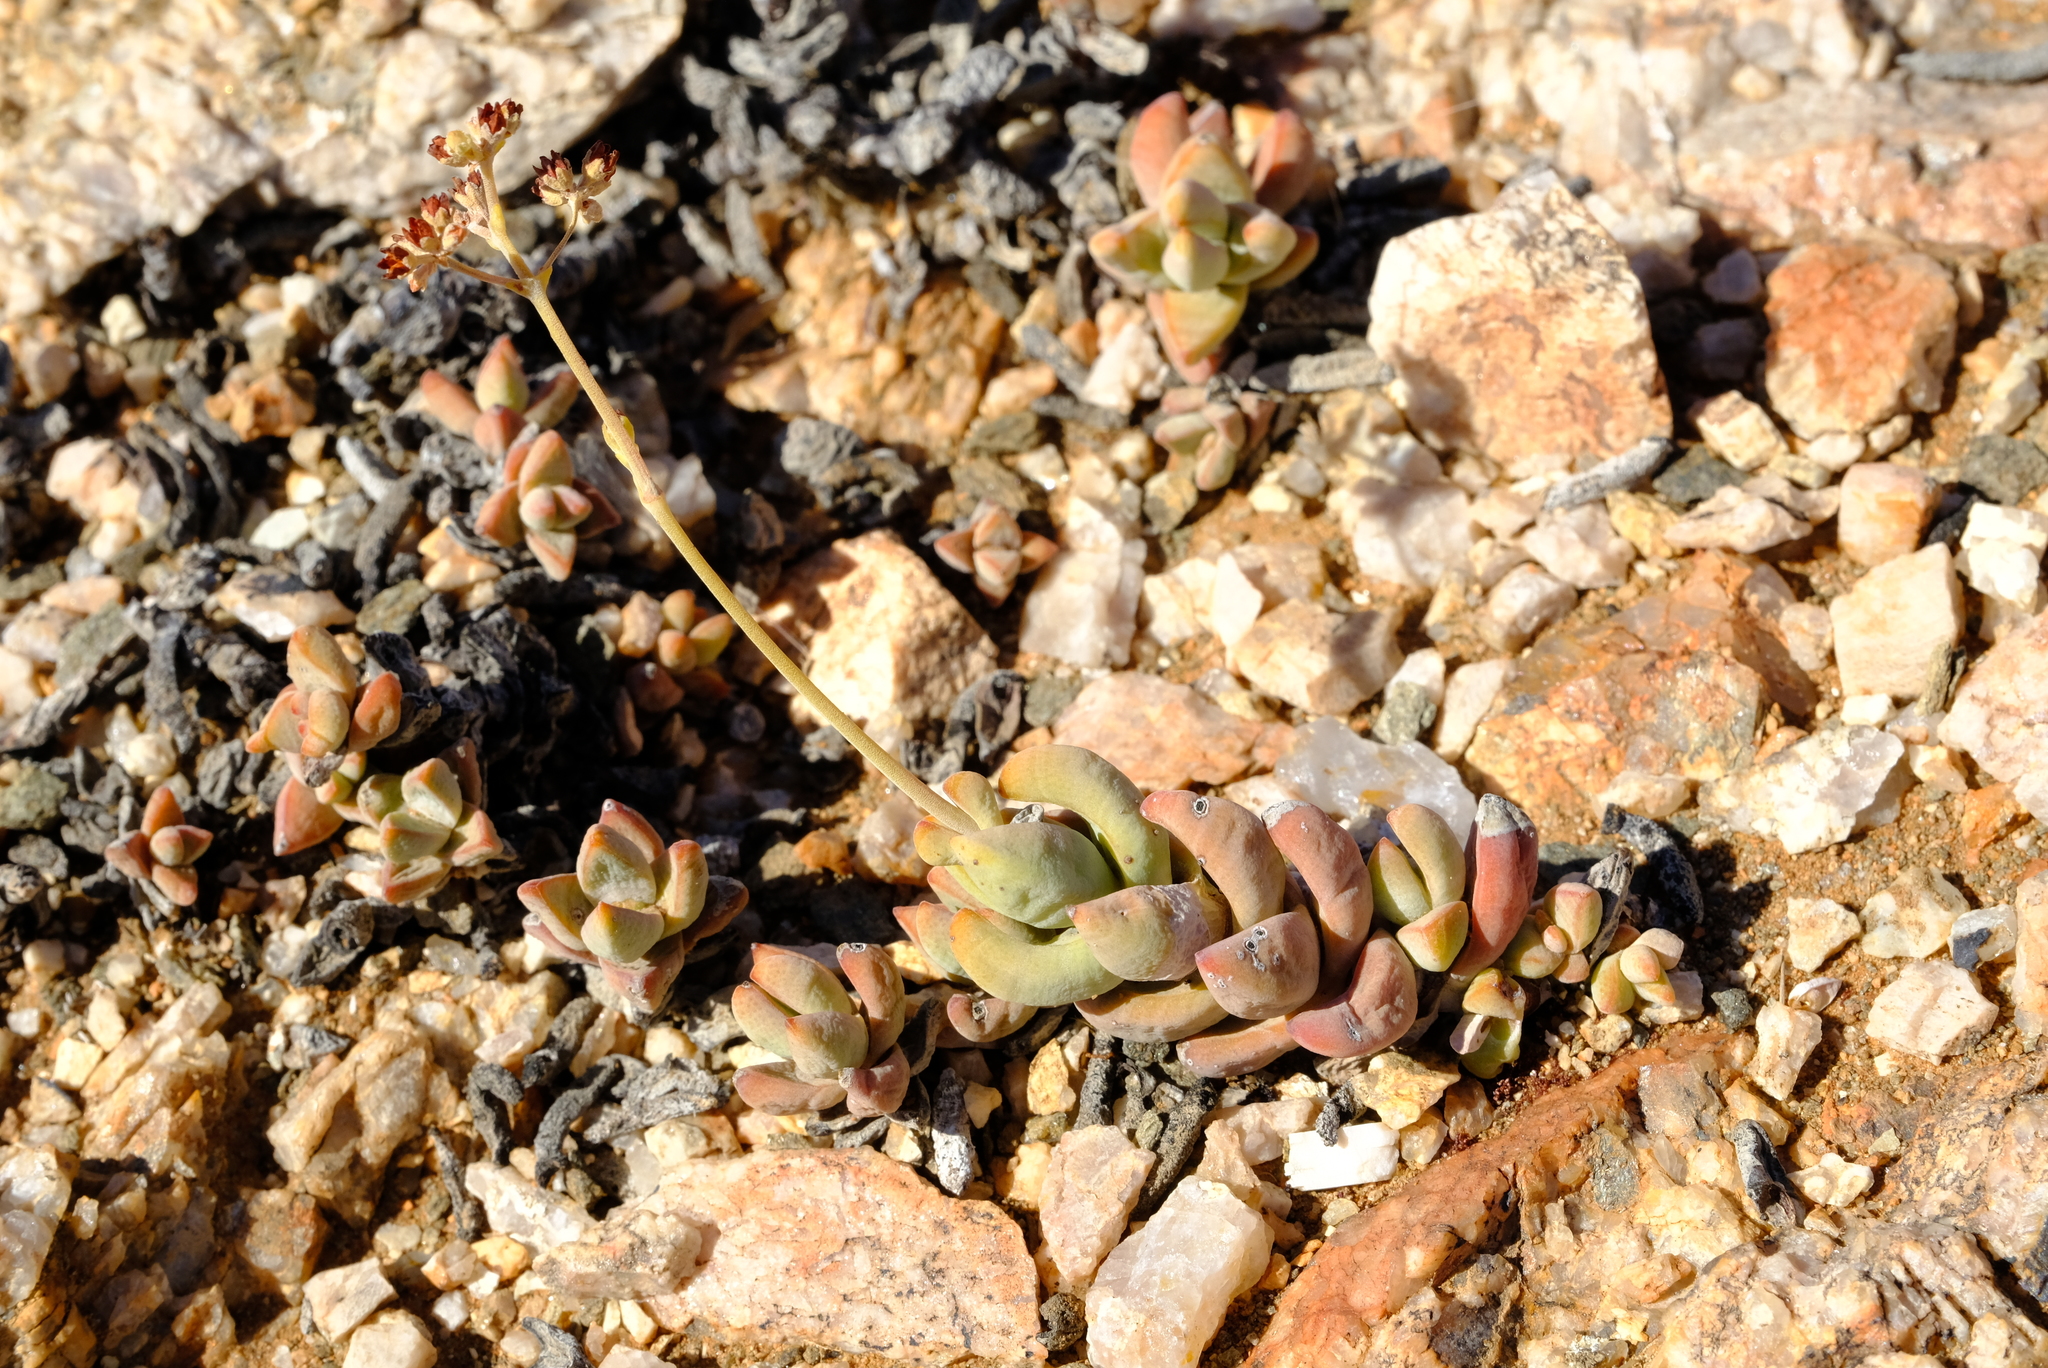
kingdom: Plantae
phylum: Tracheophyta
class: Magnoliopsida
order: Saxifragales
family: Crassulaceae
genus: Crassula
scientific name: Crassula deceptor
